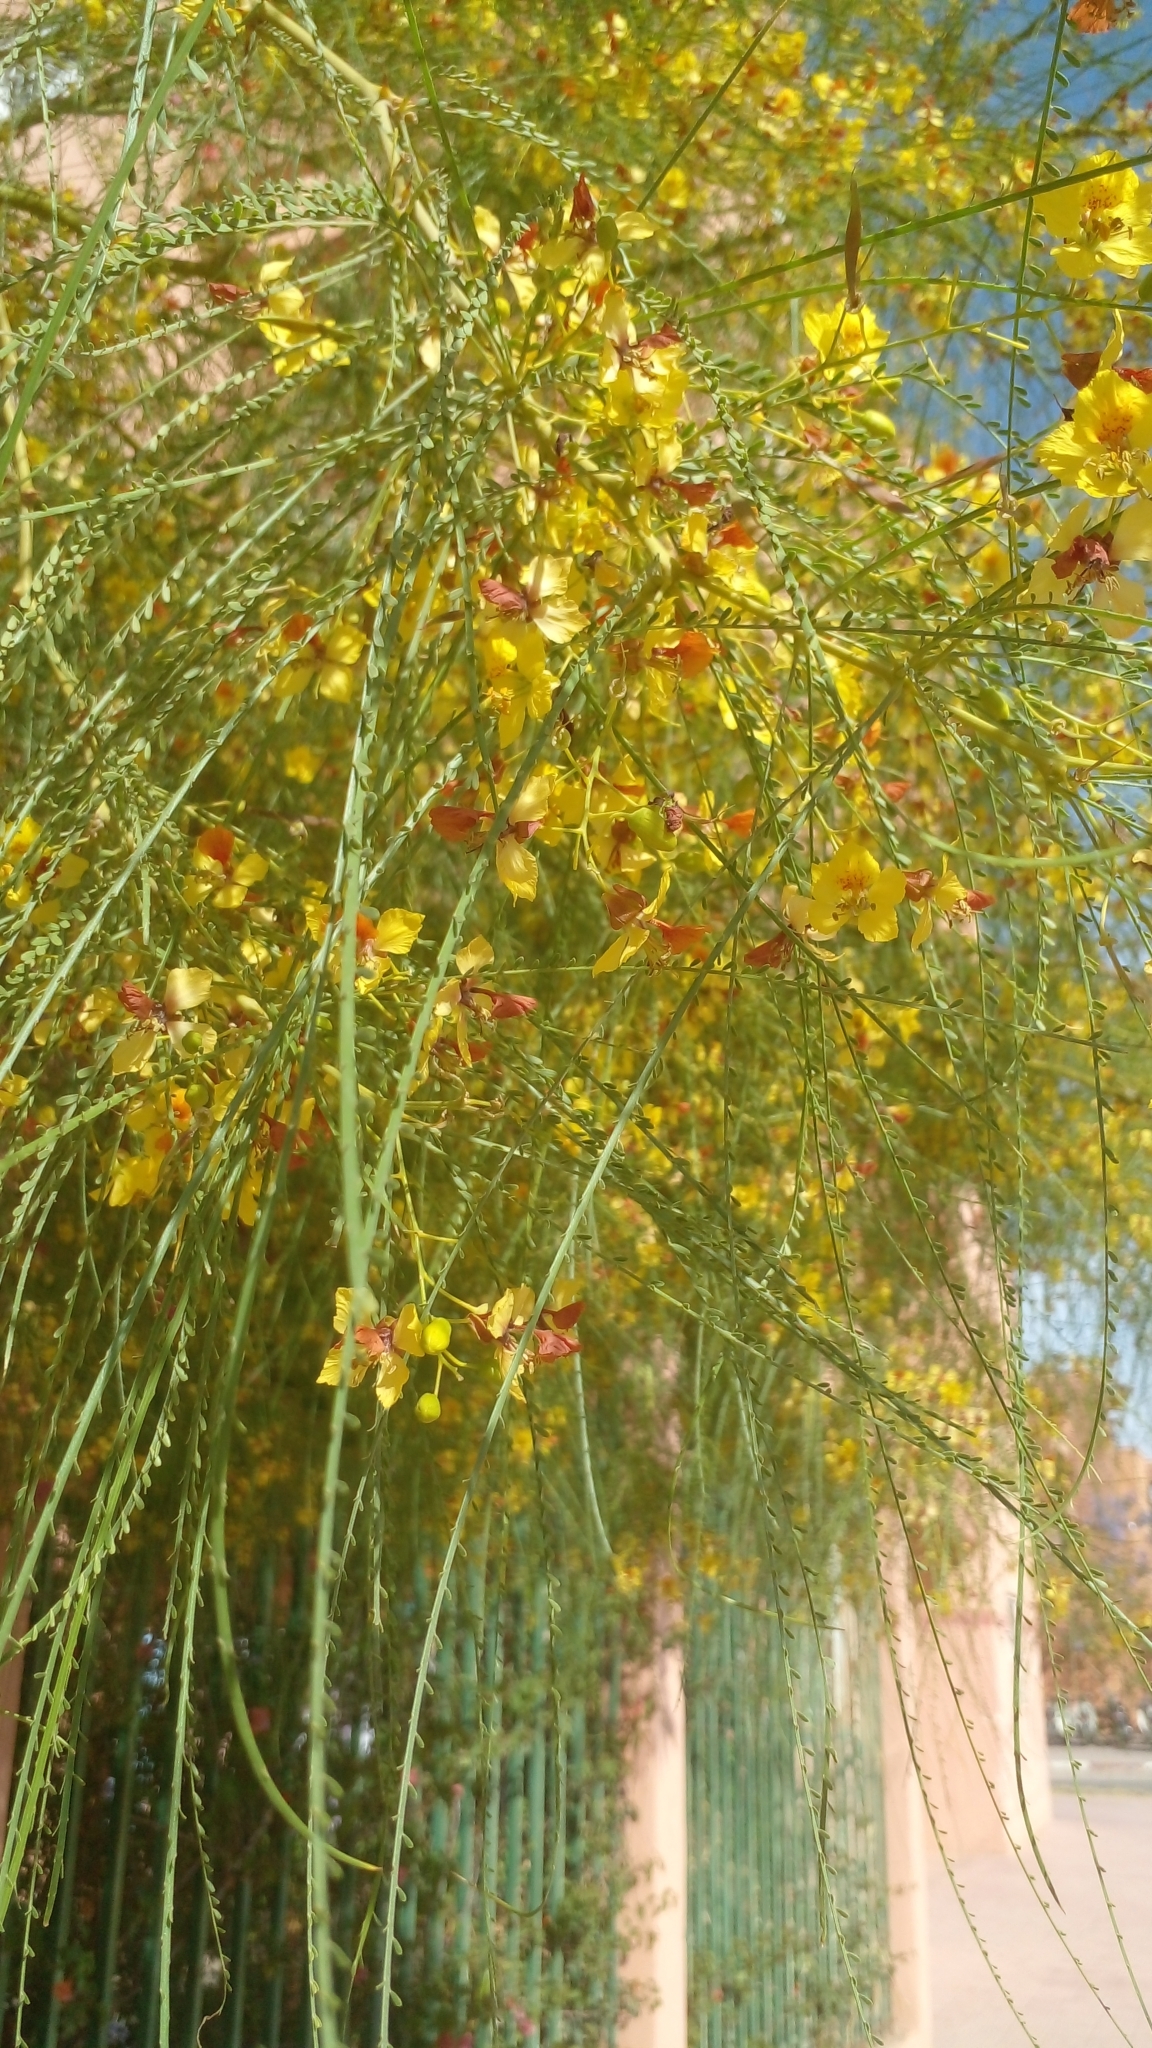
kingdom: Plantae
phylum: Tracheophyta
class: Magnoliopsida
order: Fabales
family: Fabaceae
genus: Parkinsonia
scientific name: Parkinsonia aculeata
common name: Jerusalem thorn
